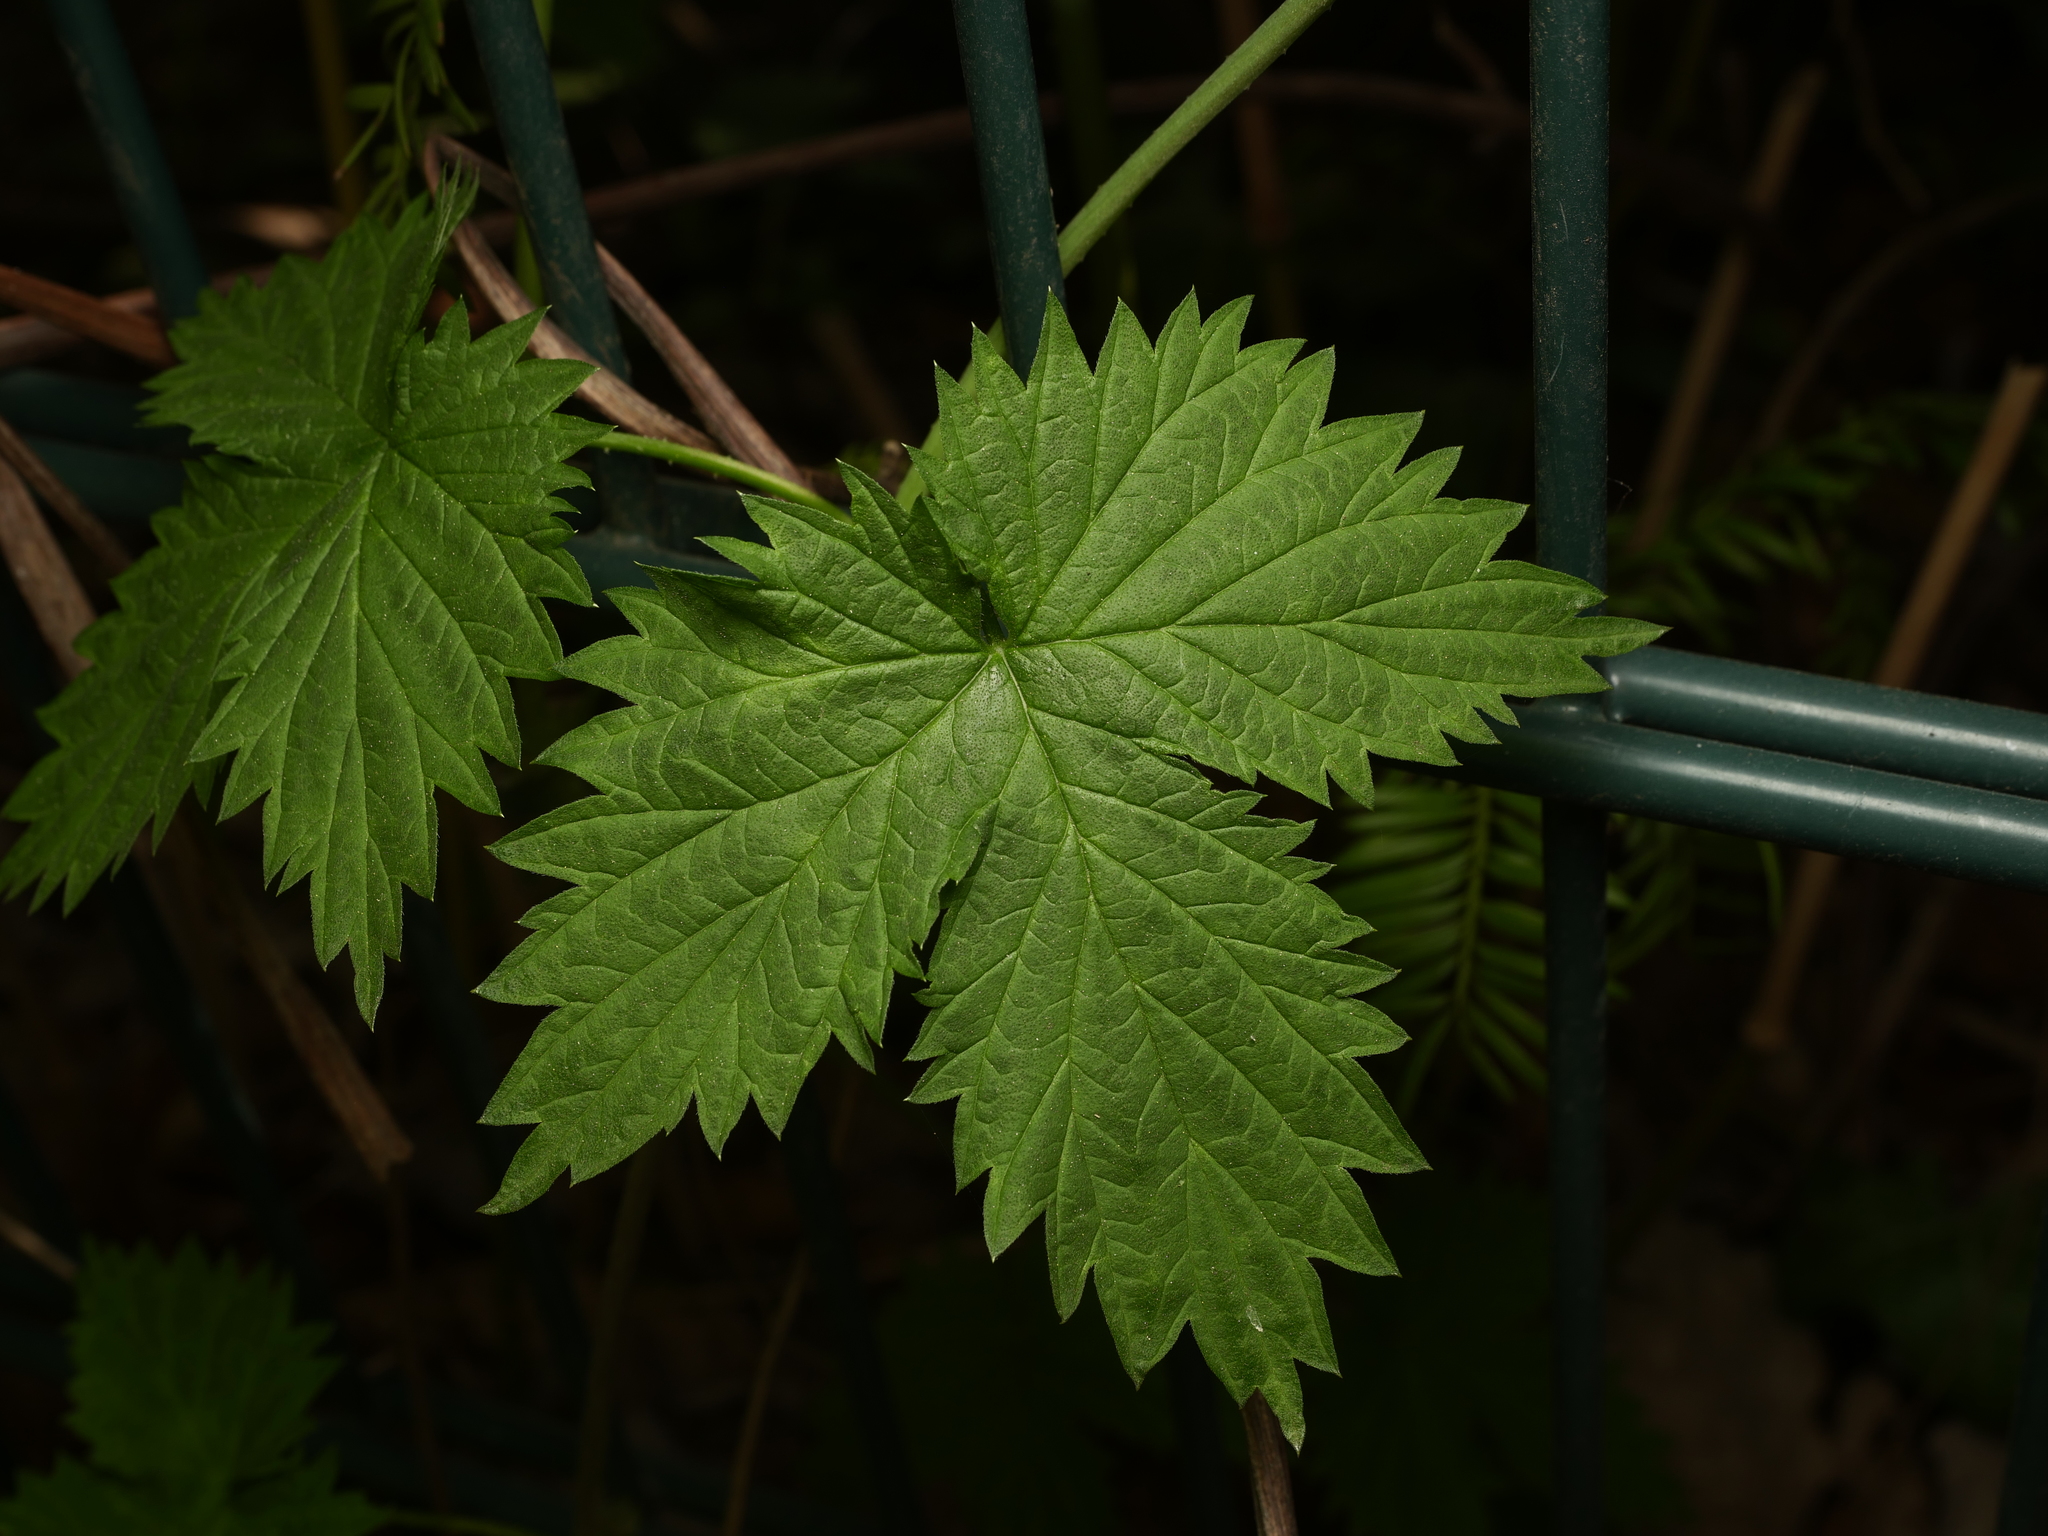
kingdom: Plantae
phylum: Tracheophyta
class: Magnoliopsida
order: Rosales
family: Cannabaceae
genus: Humulus
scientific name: Humulus lupulus
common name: Hop
